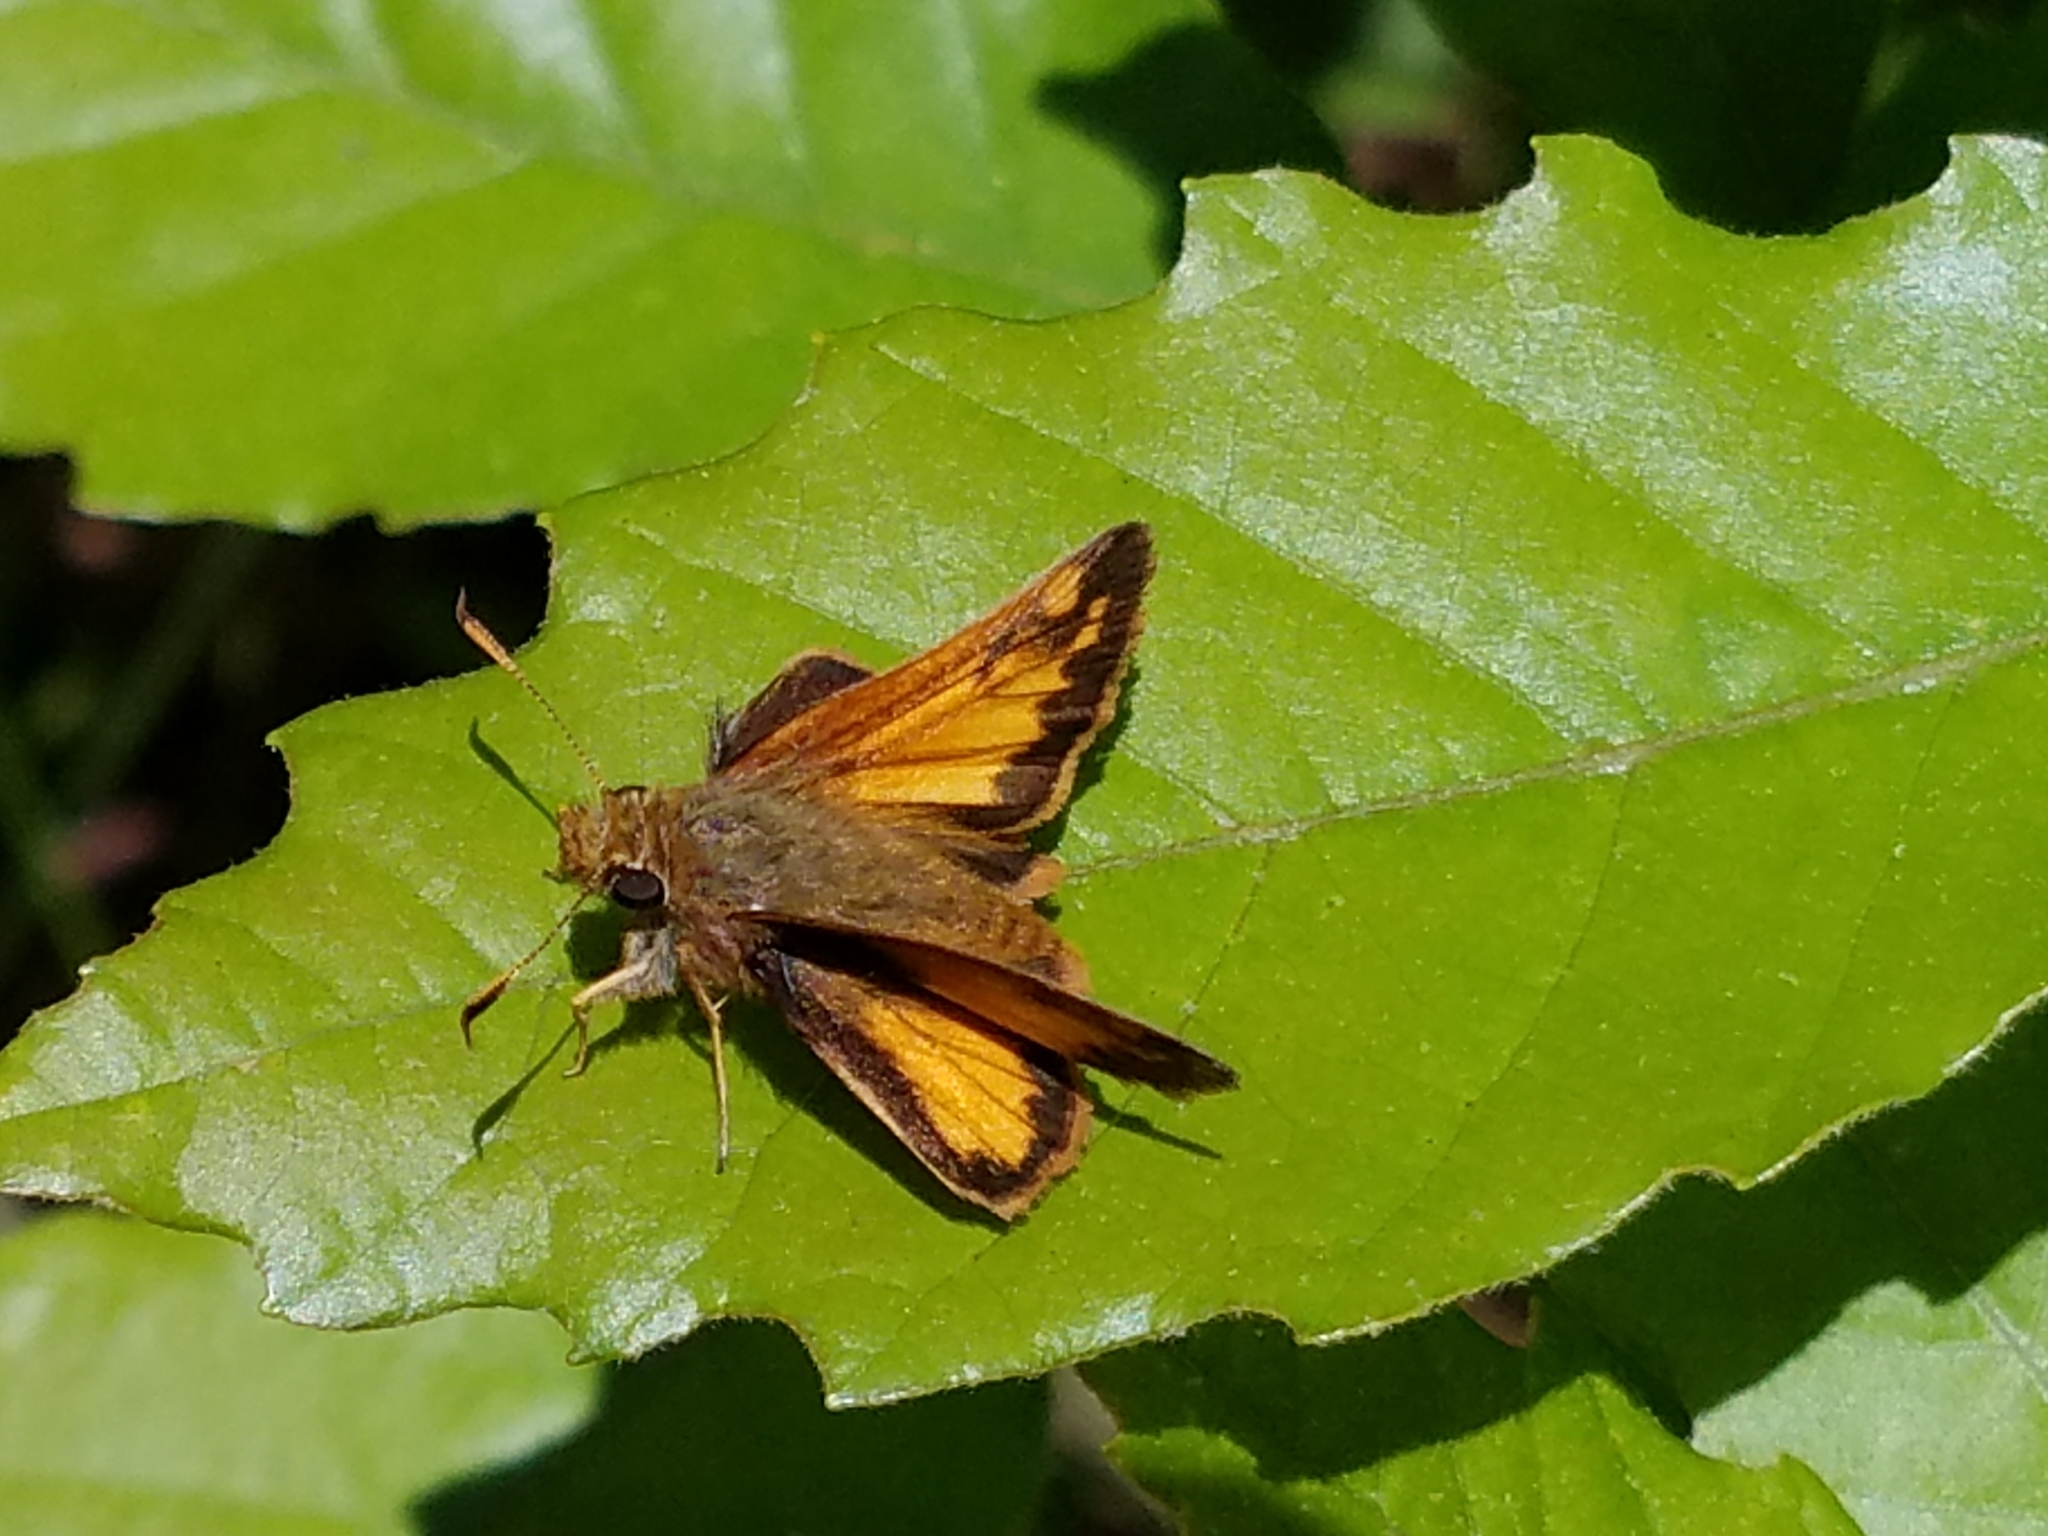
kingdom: Animalia
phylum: Arthropoda
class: Insecta
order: Lepidoptera
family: Hesperiidae
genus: Lon
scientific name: Lon hobomok
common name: Hobomok skipper
